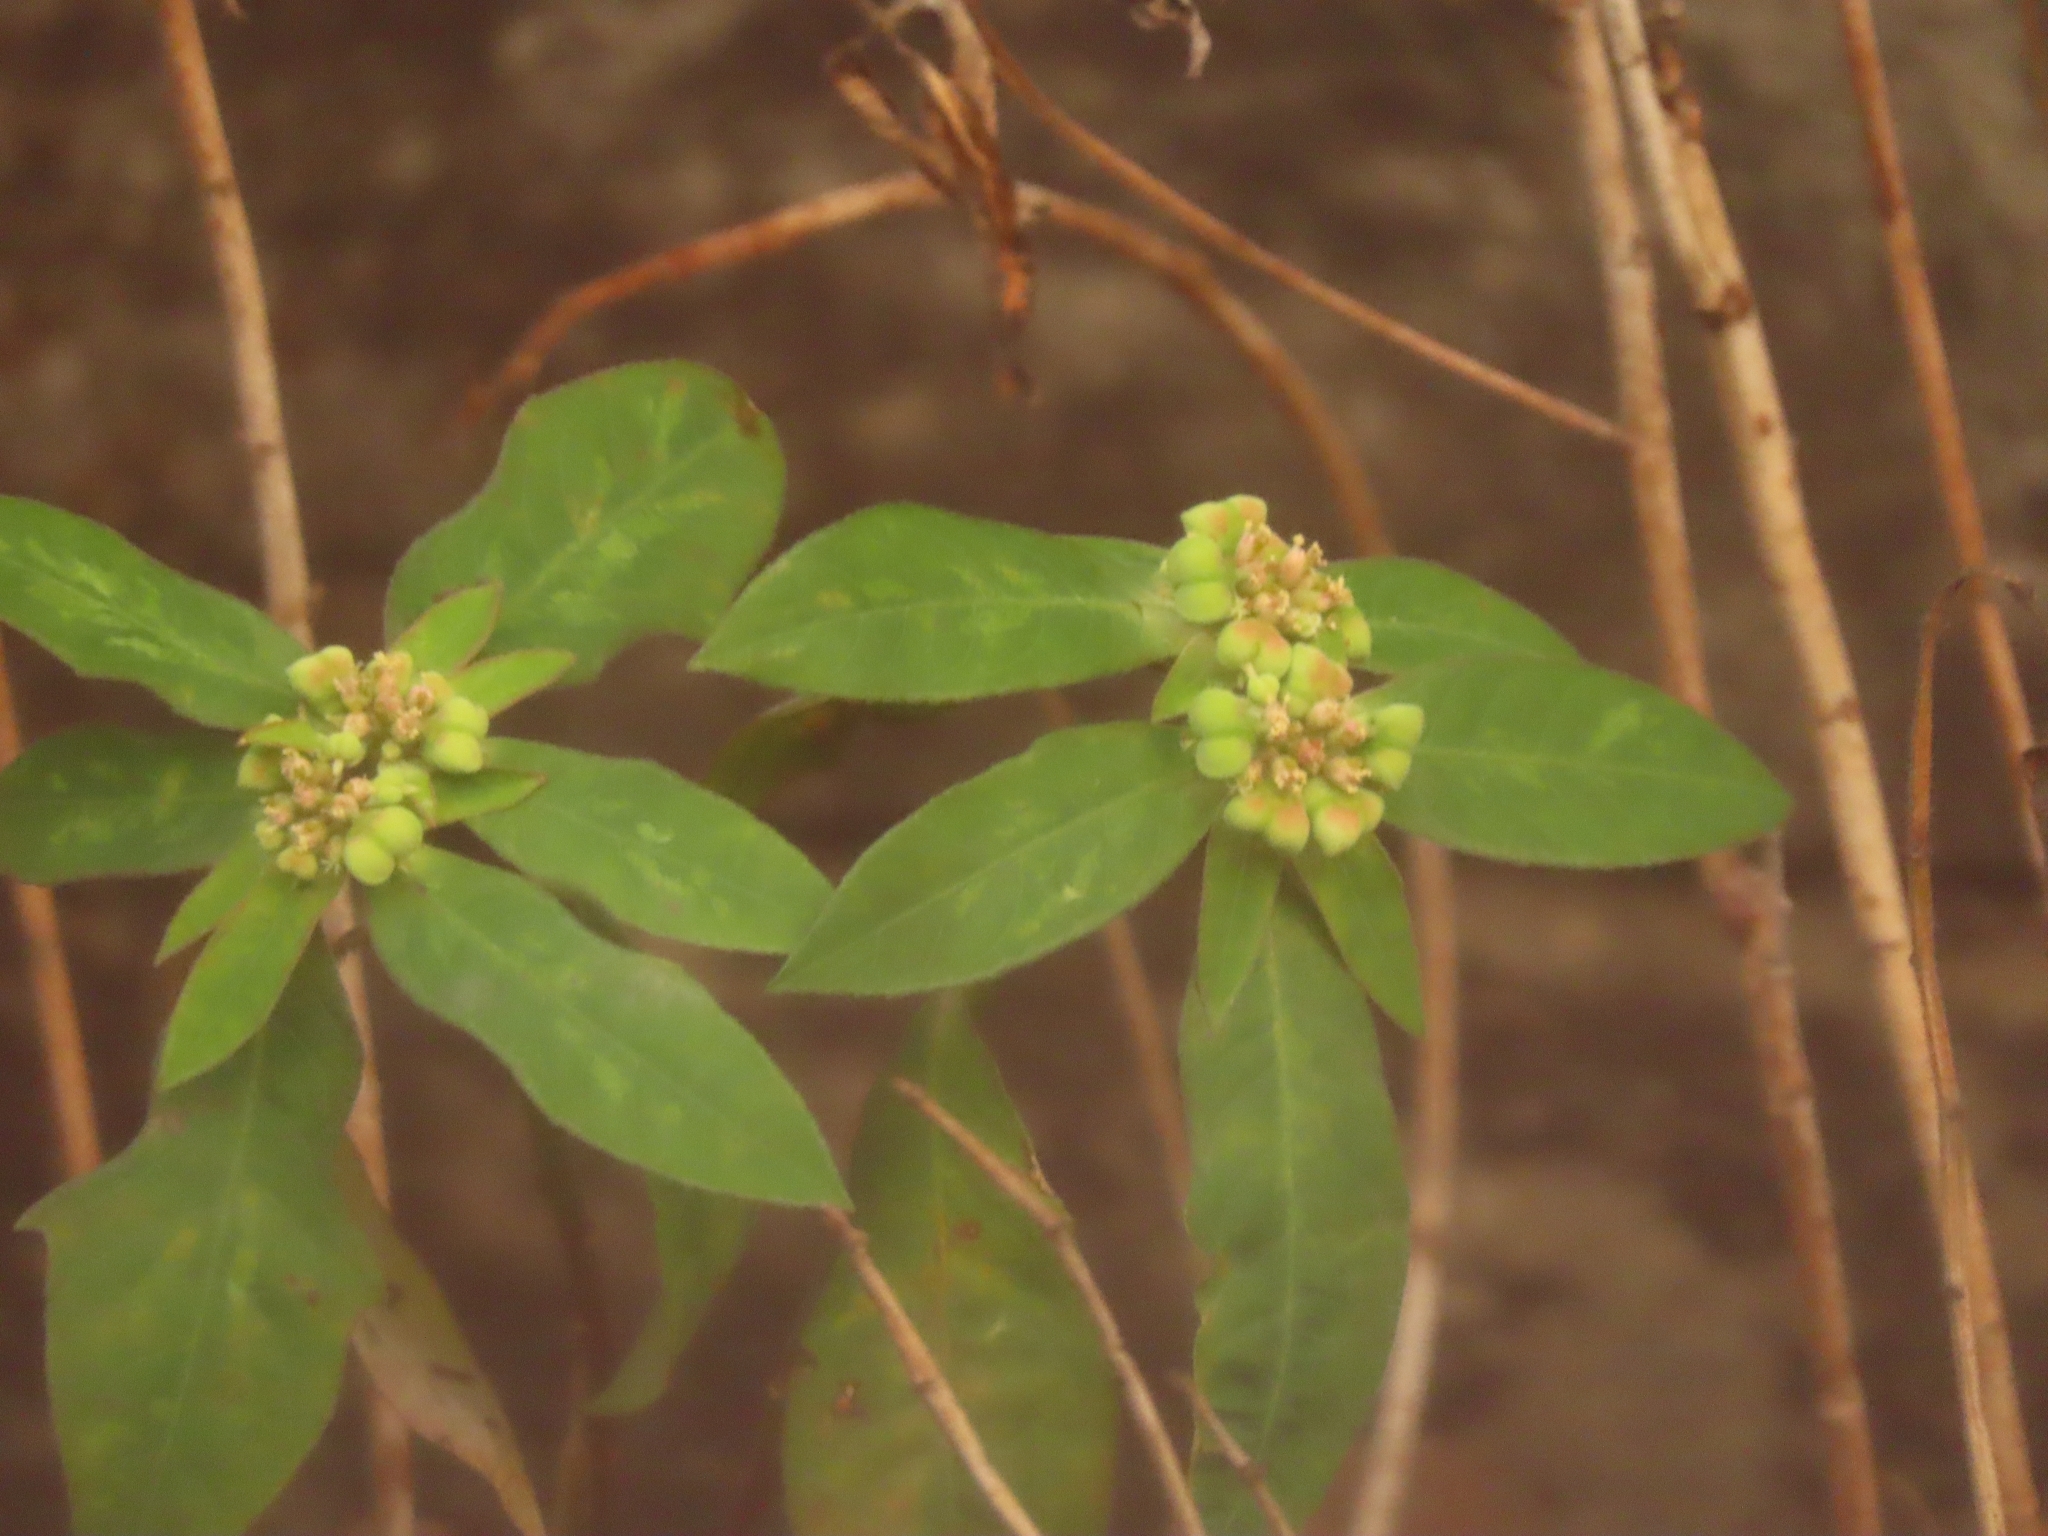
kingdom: Plantae
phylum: Tracheophyta
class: Magnoliopsida
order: Malpighiales
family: Euphorbiaceae
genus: Euphorbia
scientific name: Euphorbia heterophylla
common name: Mexican fireplant
